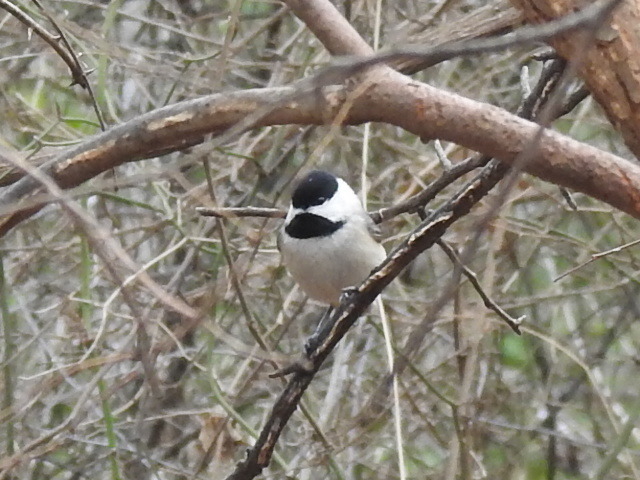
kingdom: Animalia
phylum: Chordata
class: Aves
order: Passeriformes
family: Paridae
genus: Poecile
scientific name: Poecile carolinensis
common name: Carolina chickadee
